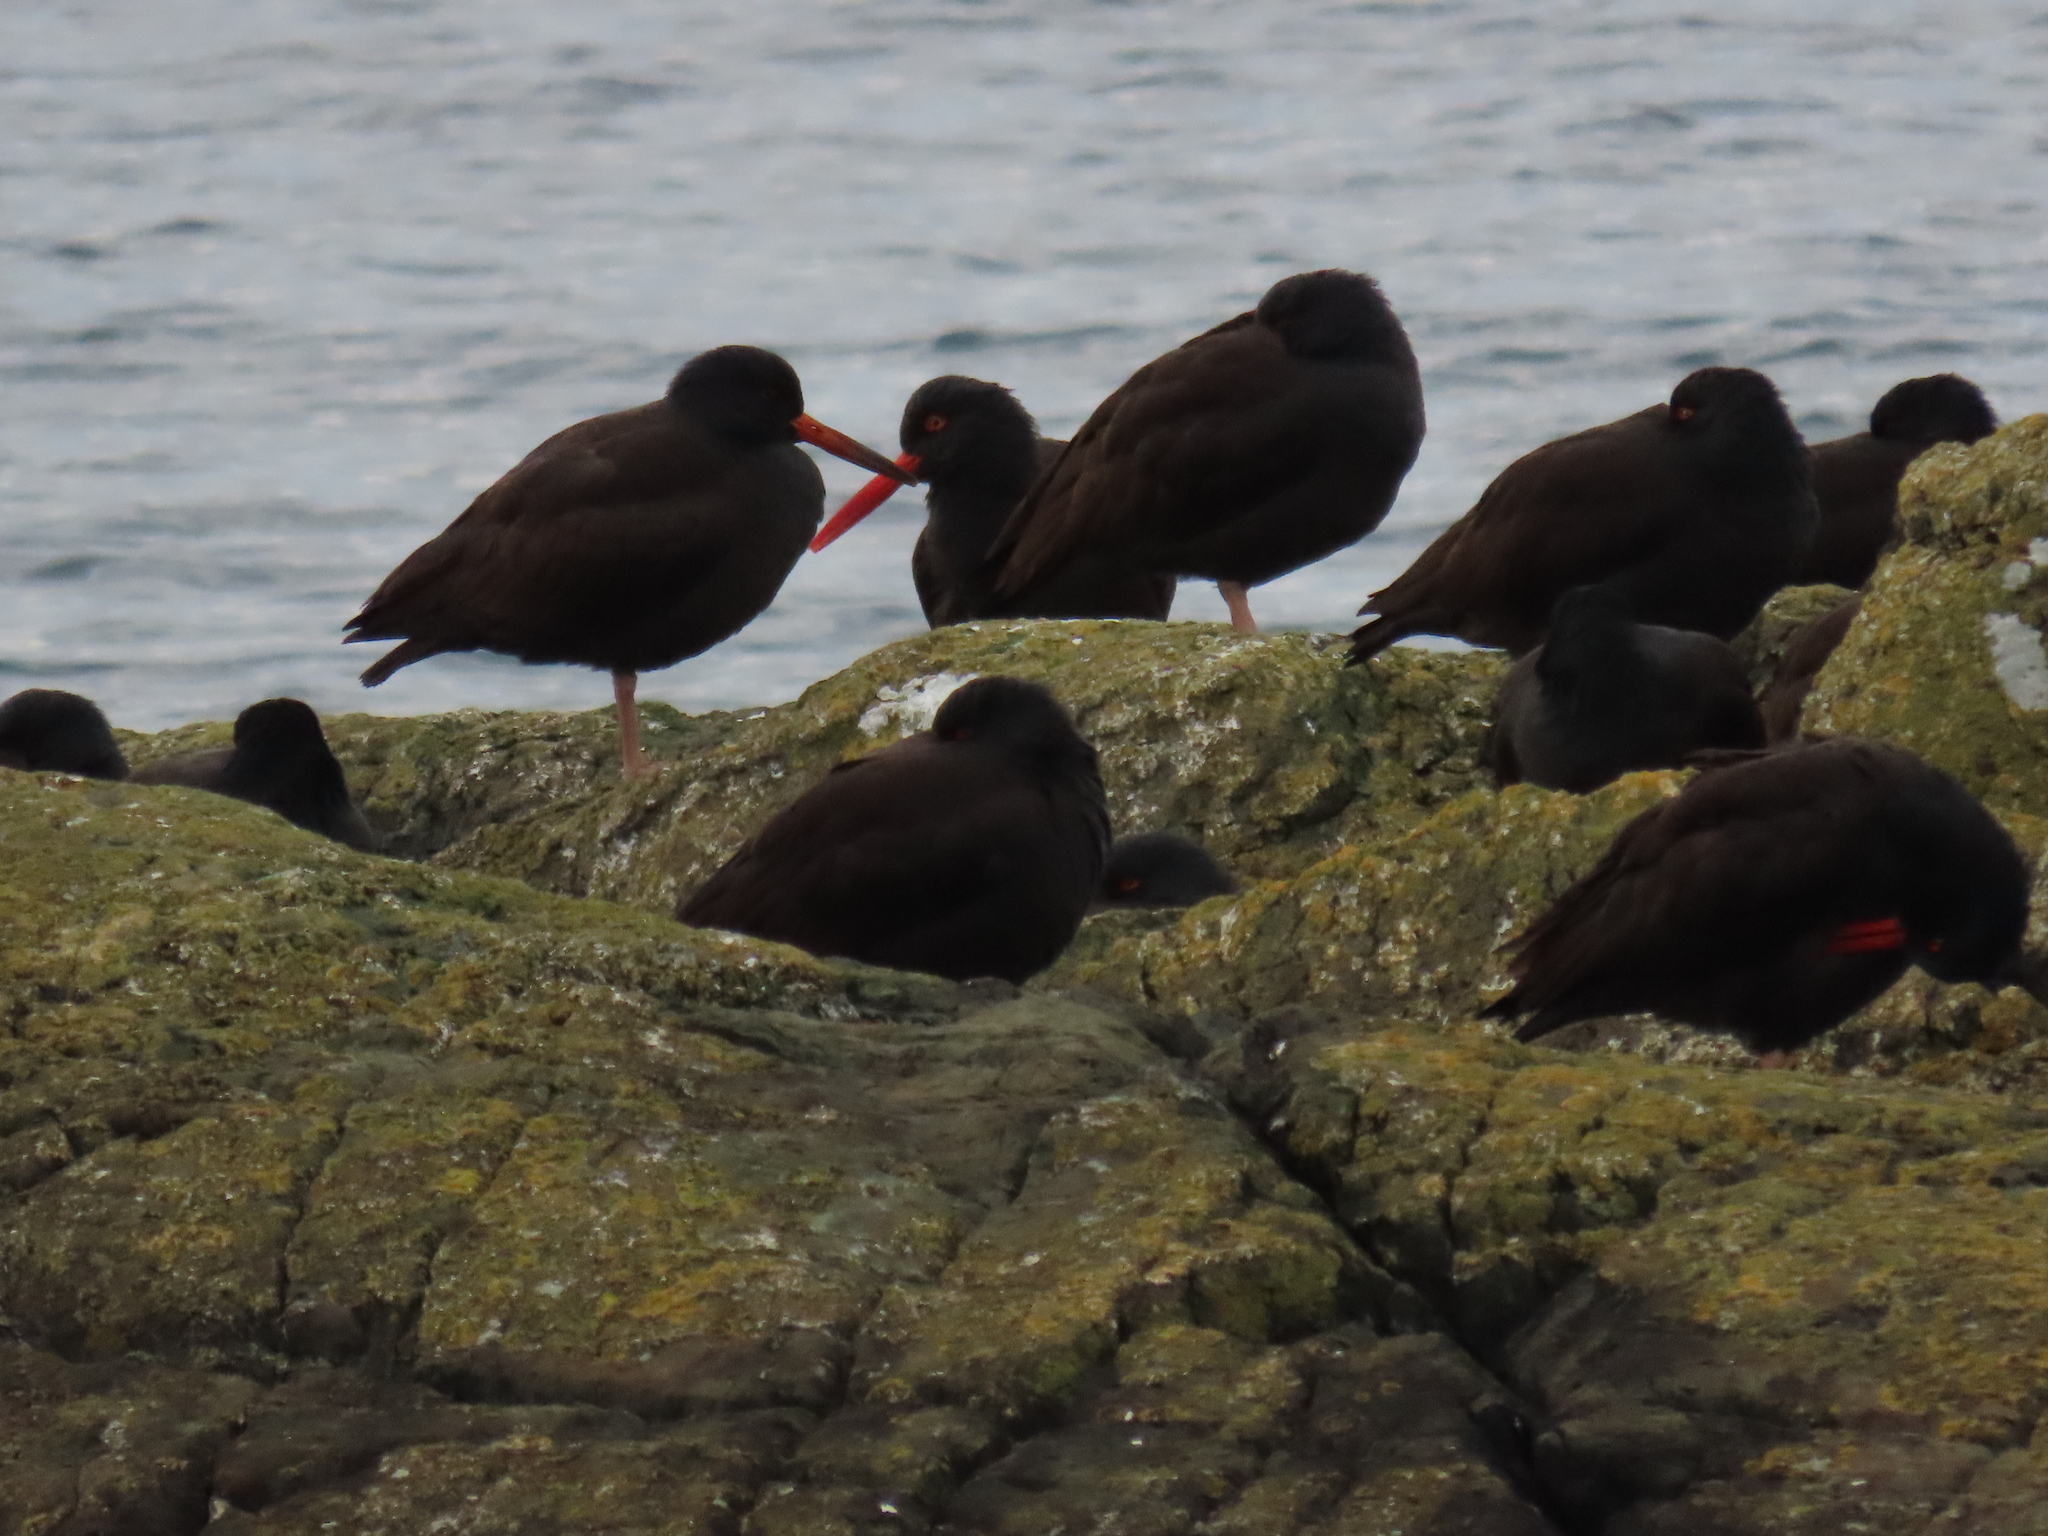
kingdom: Animalia
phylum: Chordata
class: Aves
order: Charadriiformes
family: Haematopodidae
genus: Haematopus
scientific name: Haematopus bachmani
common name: Black oystercatcher
